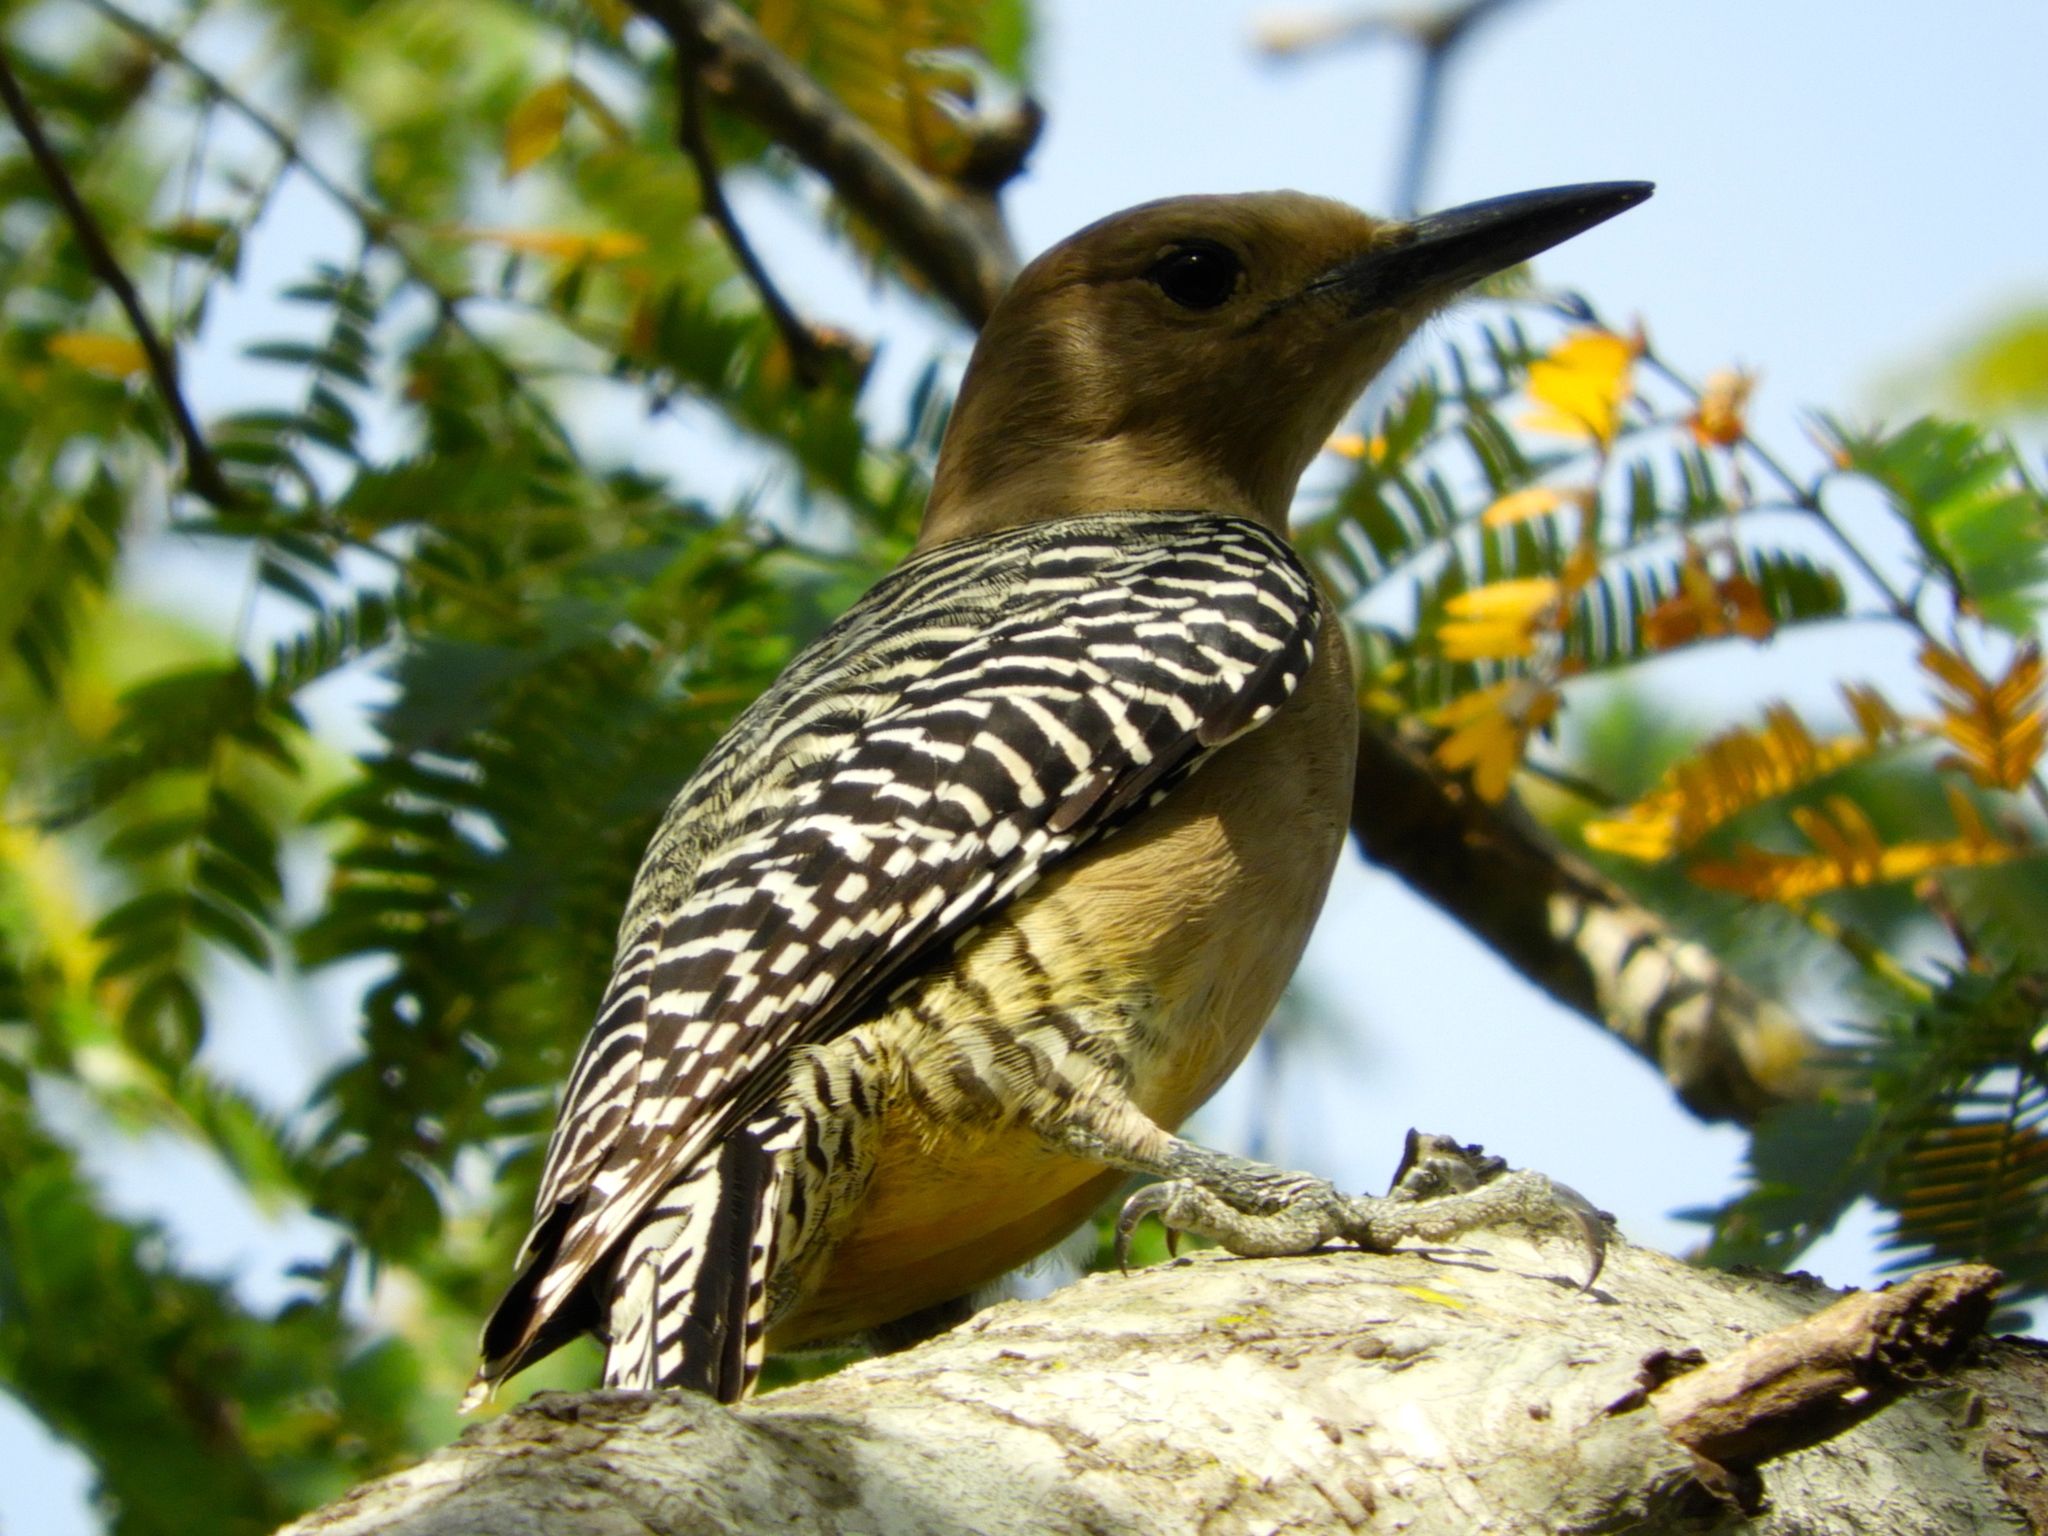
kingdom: Animalia
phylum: Chordata
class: Aves
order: Piciformes
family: Picidae
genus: Melanerpes
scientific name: Melanerpes uropygialis
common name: Gila woodpecker
